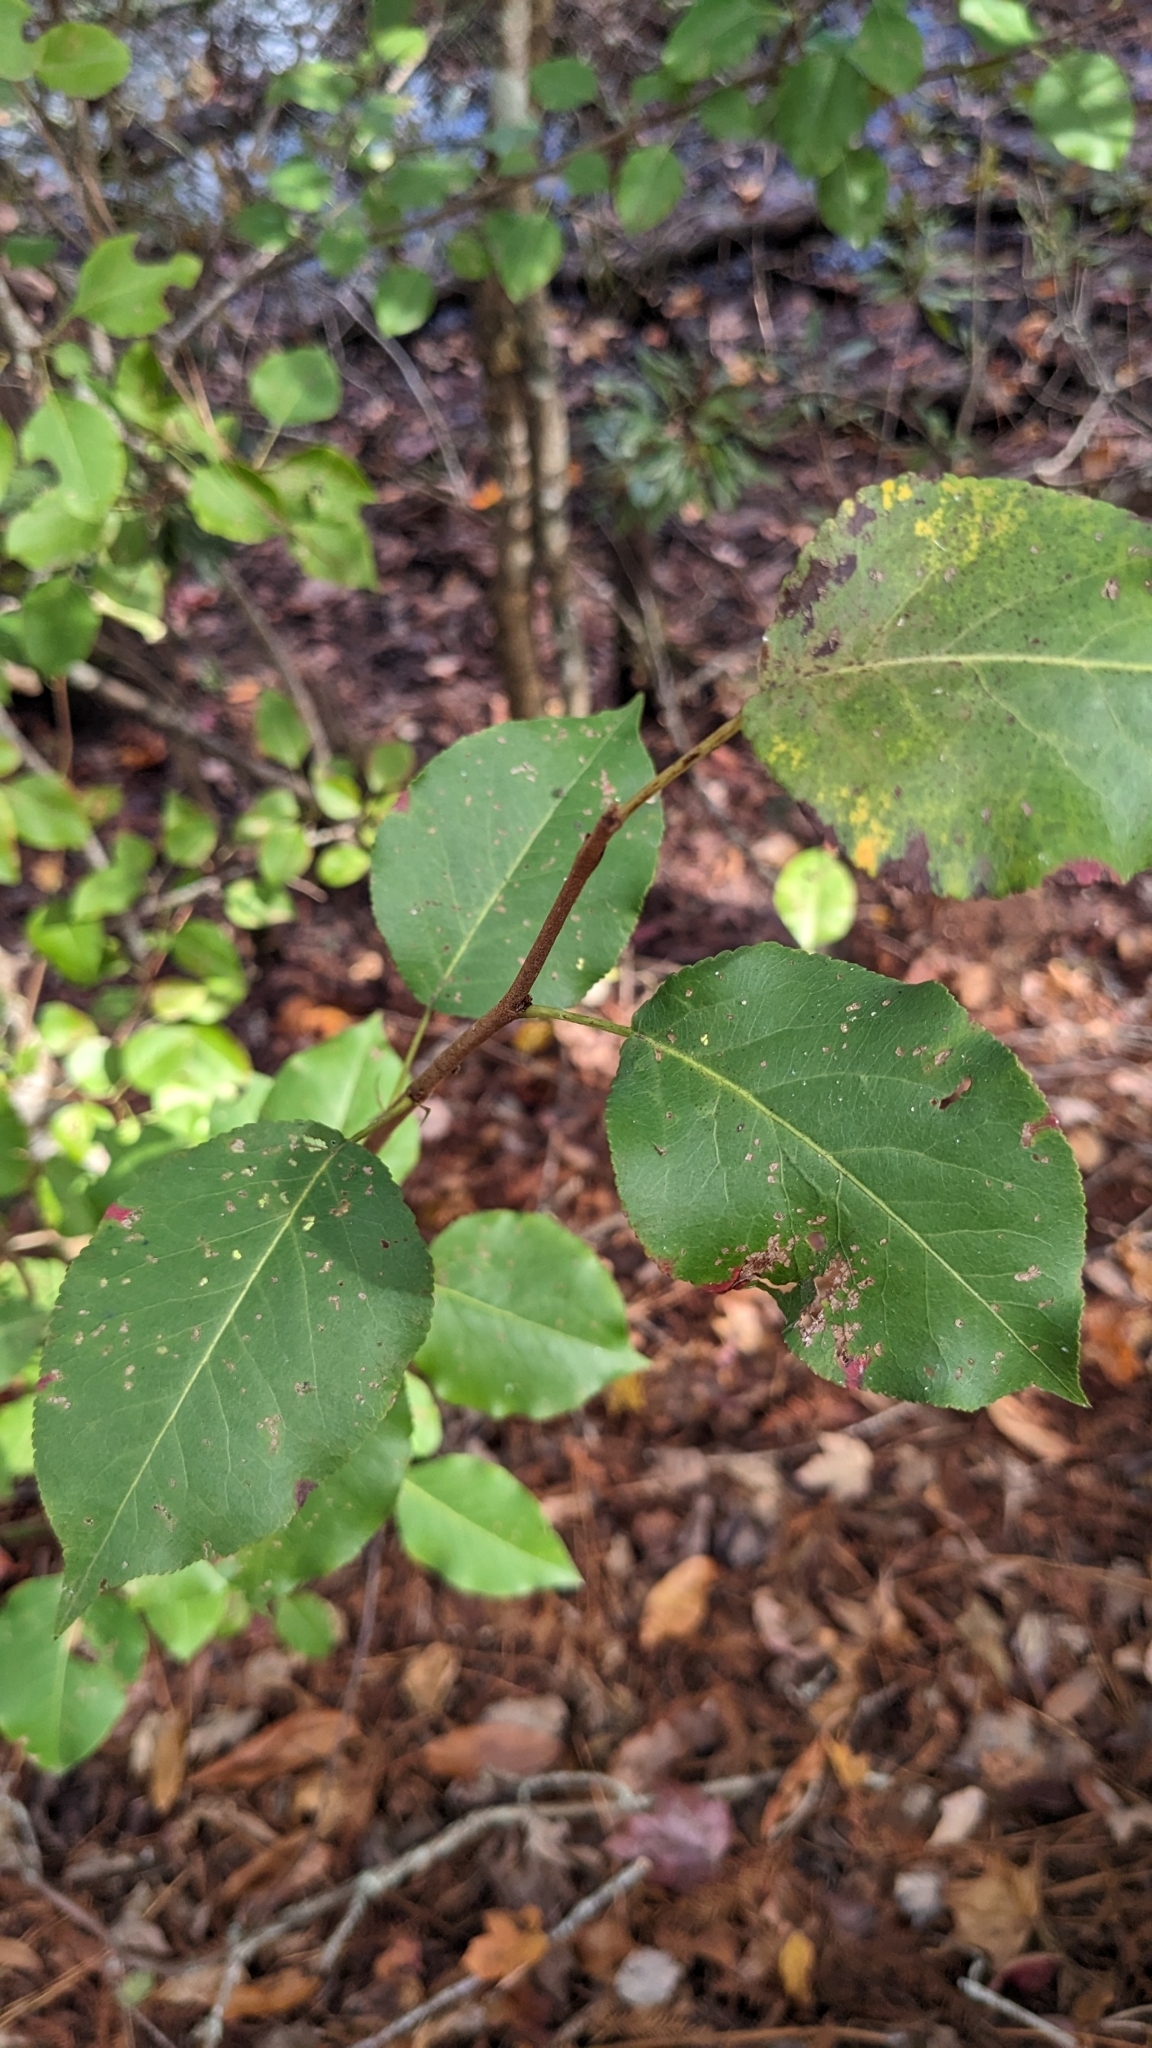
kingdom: Plantae
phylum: Tracheophyta
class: Magnoliopsida
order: Rosales
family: Rosaceae
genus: Pyrus
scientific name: Pyrus calleryana
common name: Callery pear
